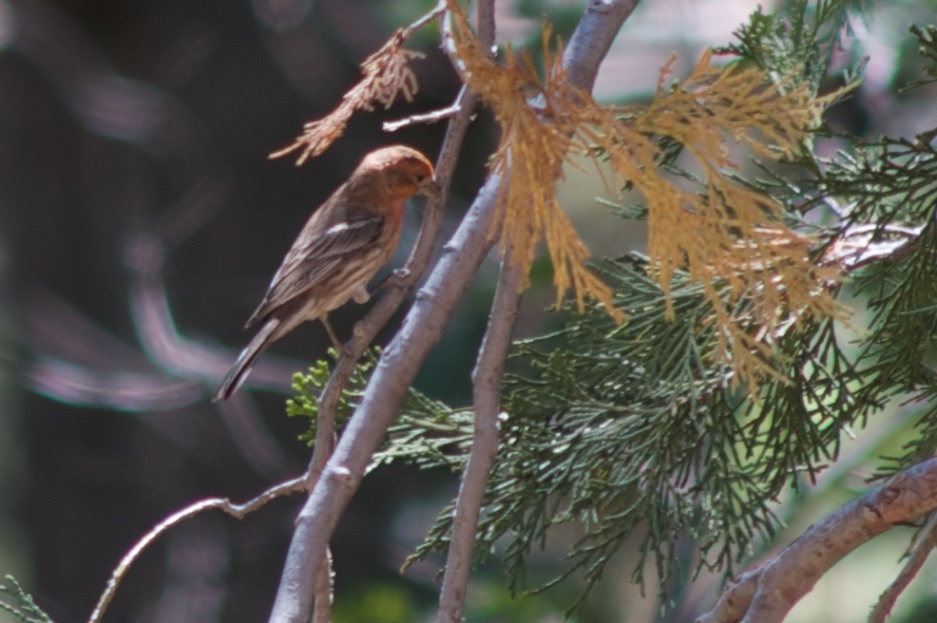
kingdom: Animalia
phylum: Chordata
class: Aves
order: Passeriformes
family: Fringillidae
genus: Haemorhous
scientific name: Haemorhous mexicanus
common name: House finch
